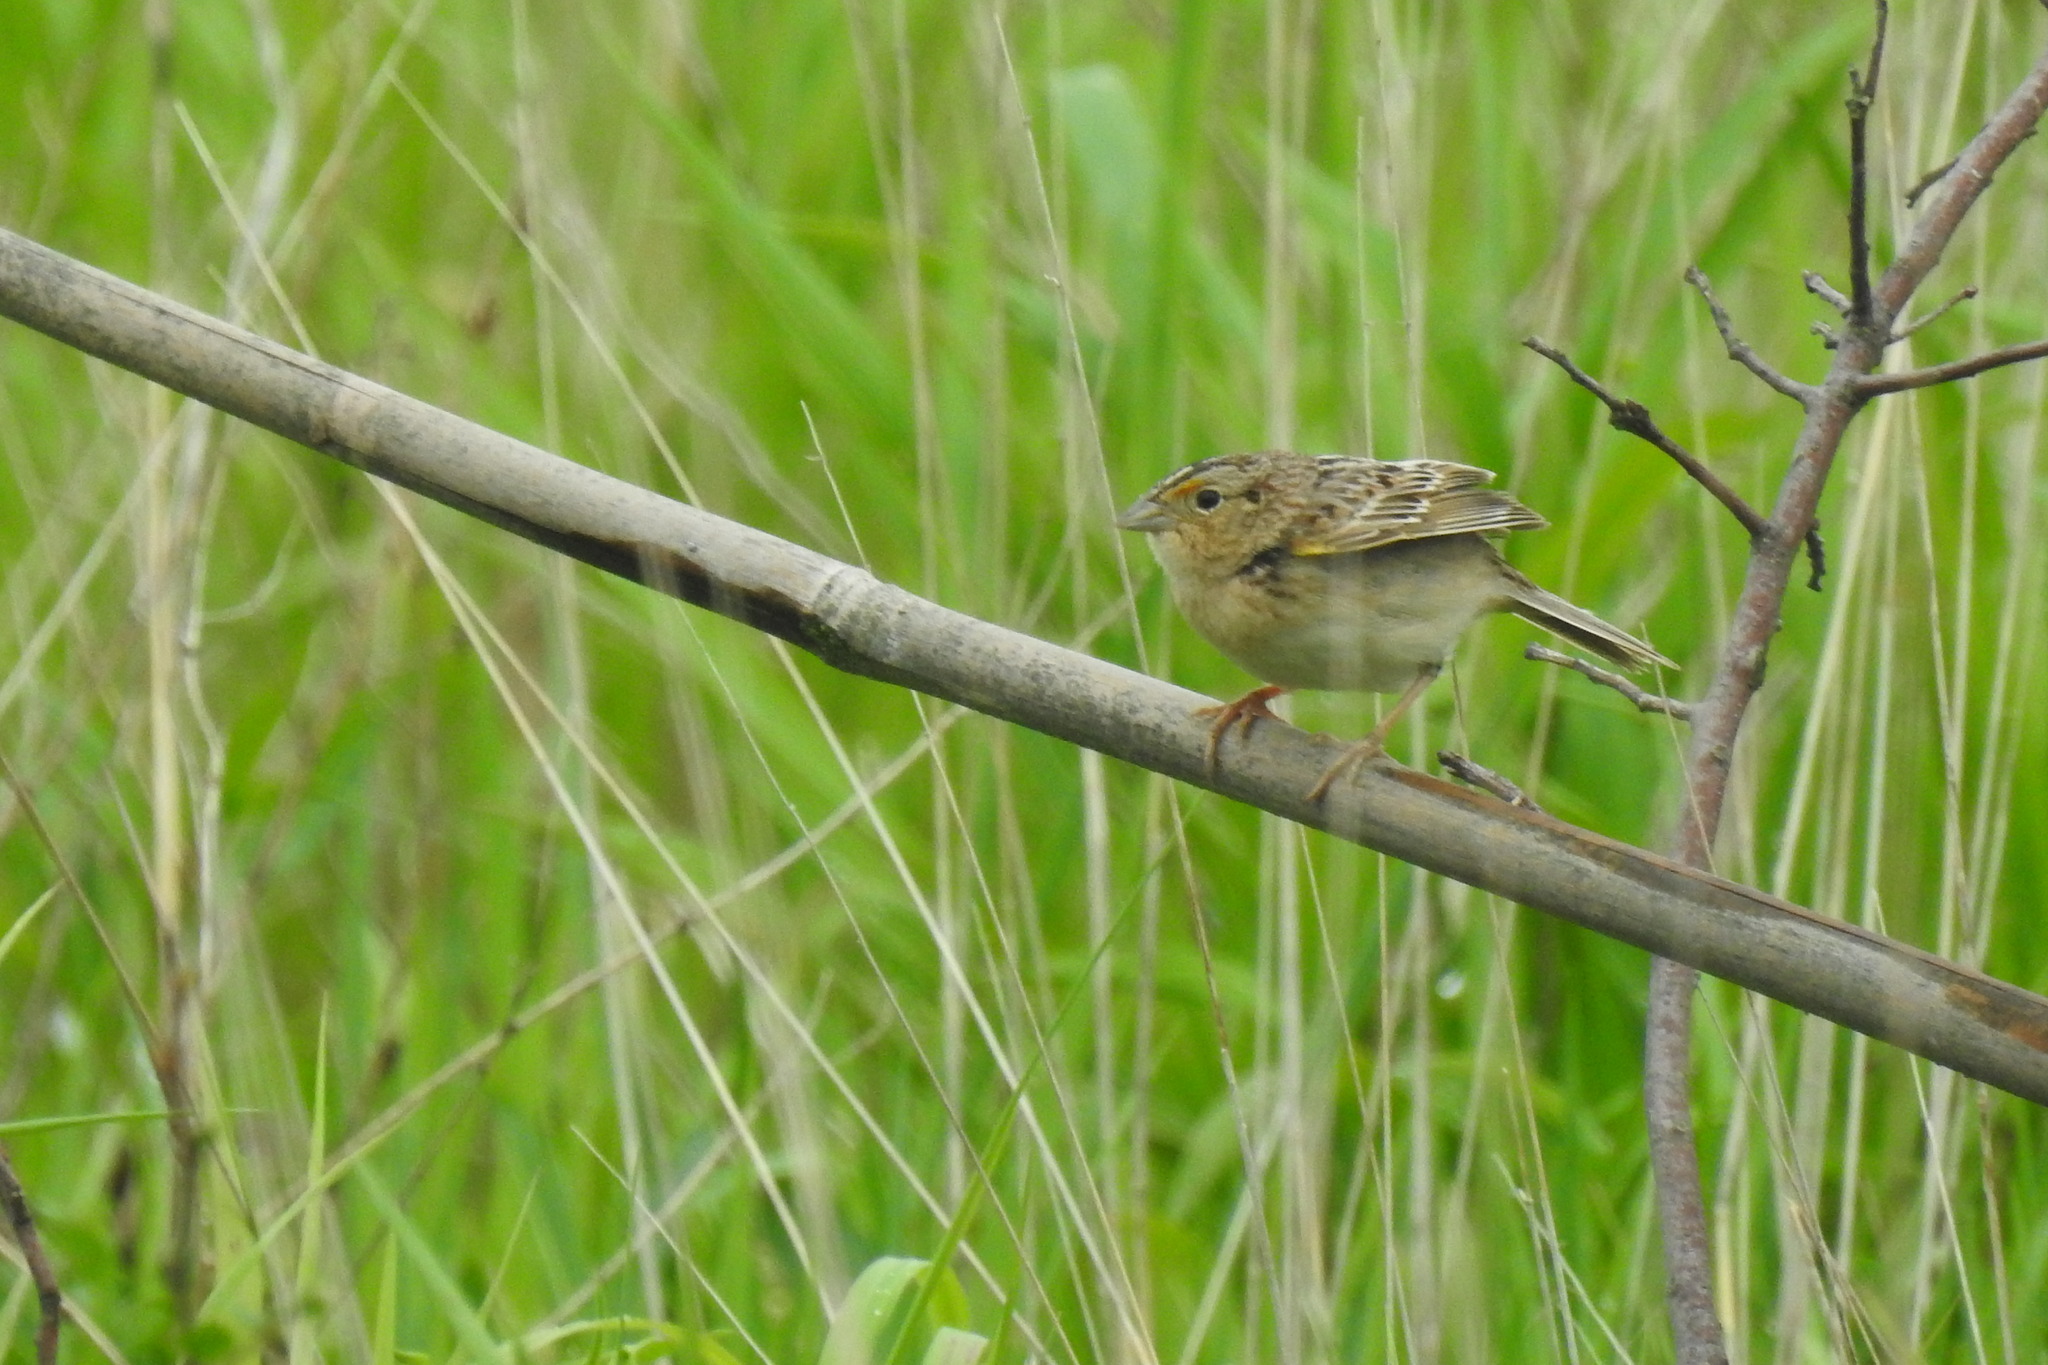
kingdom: Animalia
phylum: Chordata
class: Aves
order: Passeriformes
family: Passerellidae
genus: Ammodramus
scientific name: Ammodramus savannarum
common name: Grasshopper sparrow
